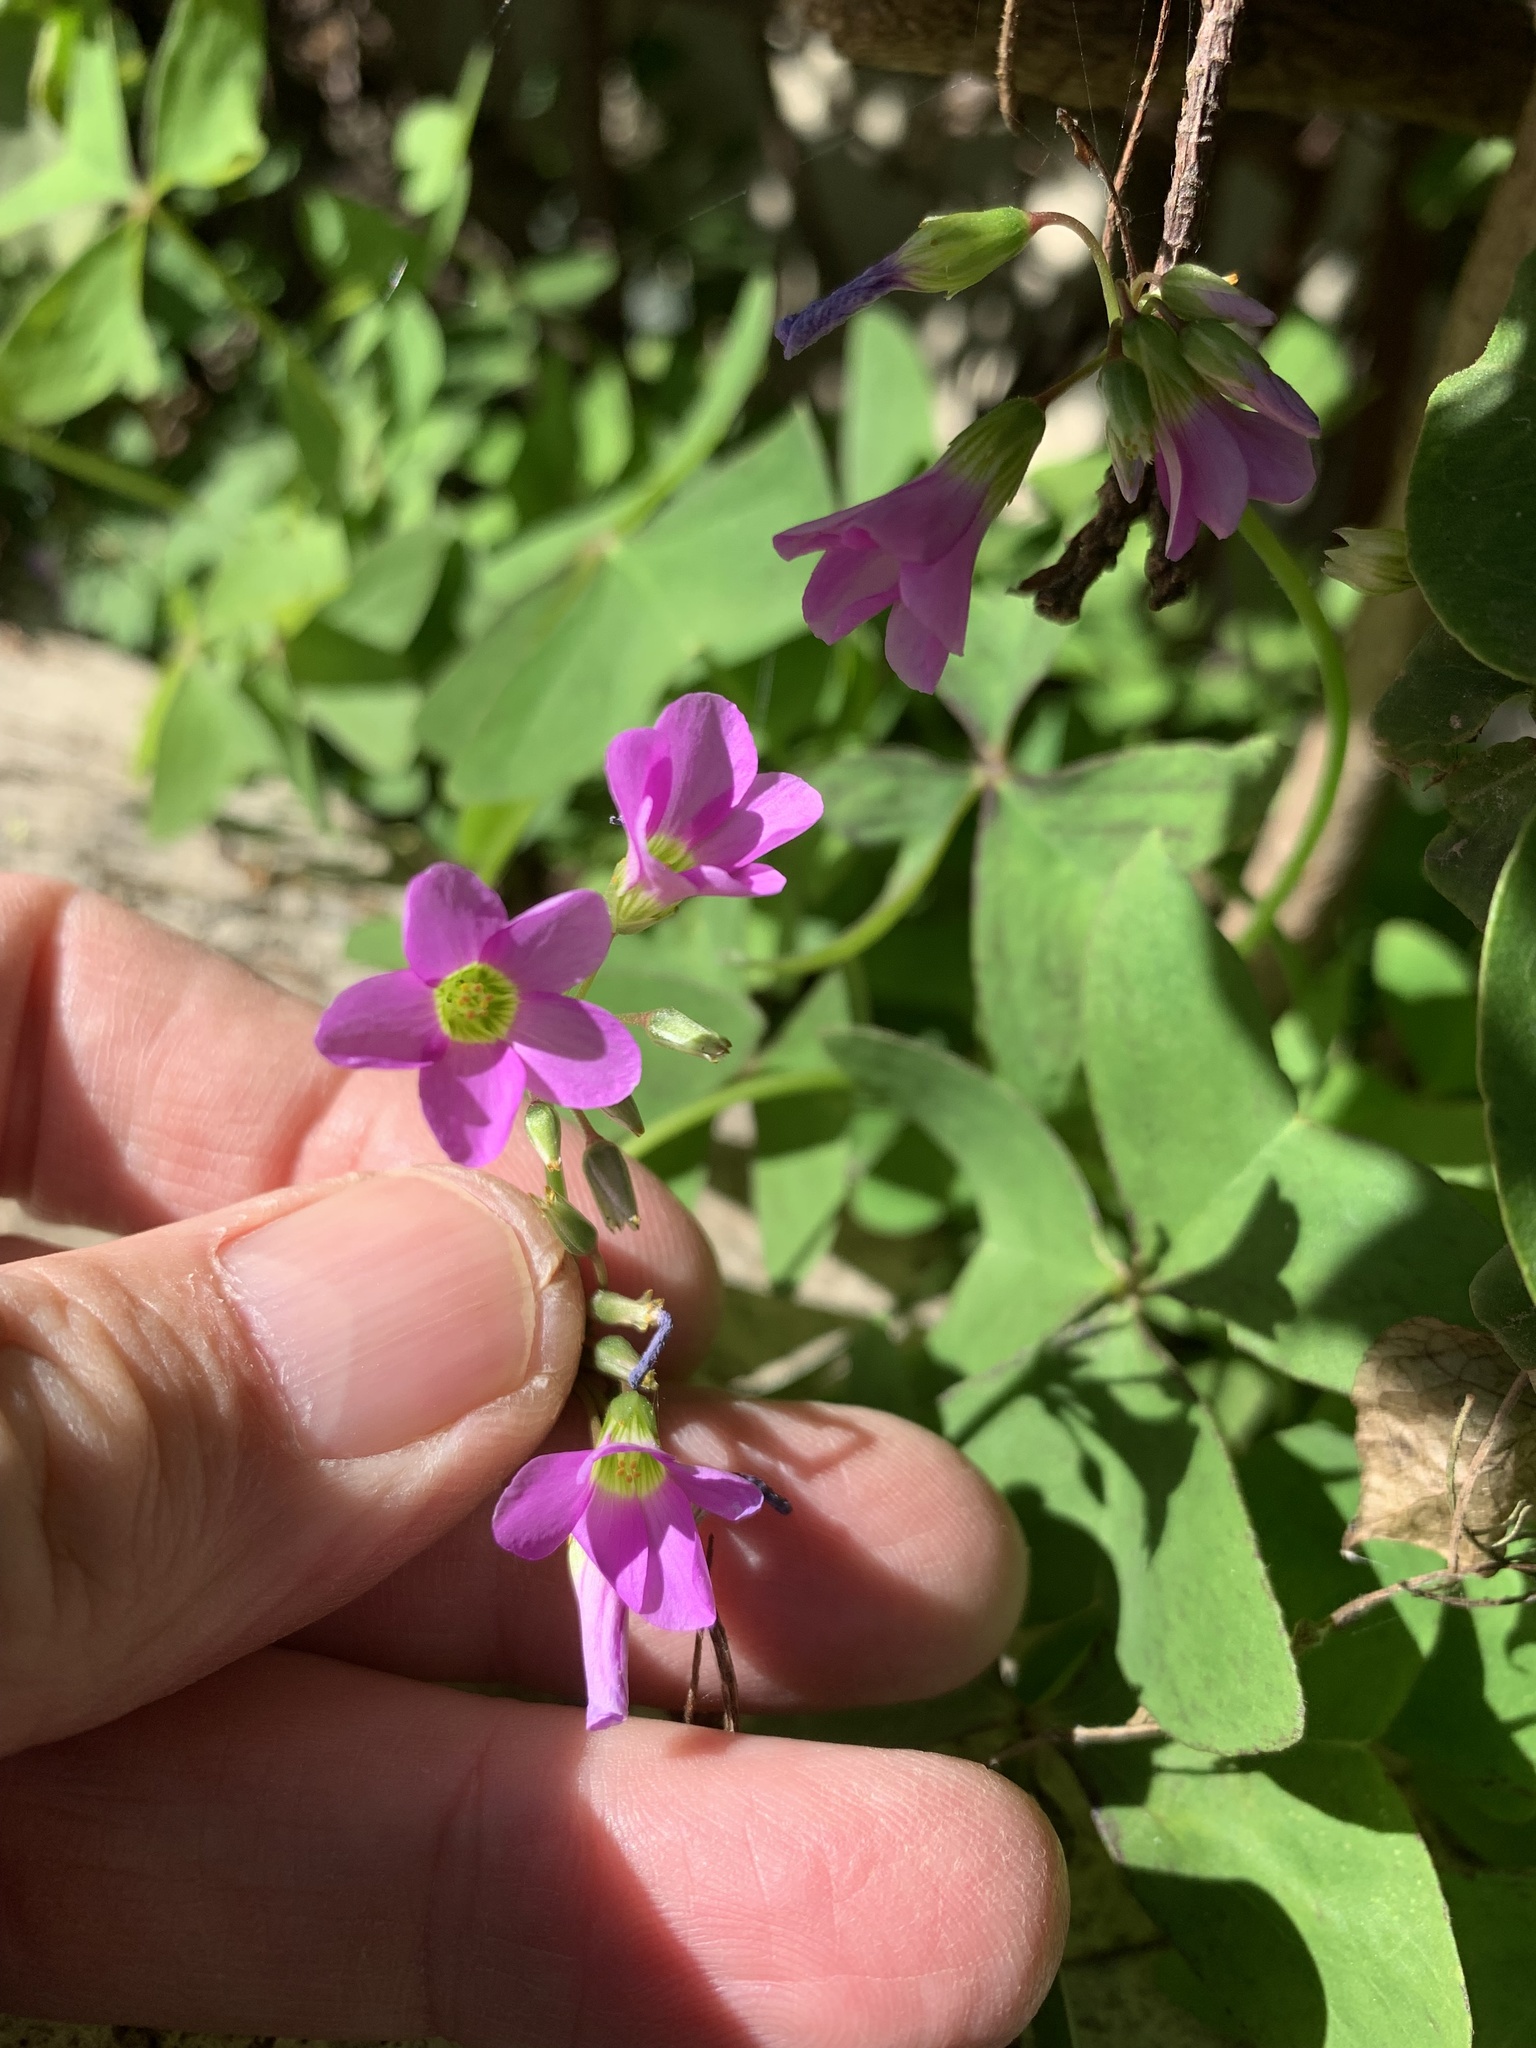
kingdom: Plantae
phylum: Tracheophyta
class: Magnoliopsida
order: Oxalidales
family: Oxalidaceae
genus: Oxalis
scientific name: Oxalis latifolia
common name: Garden pink-sorrel
